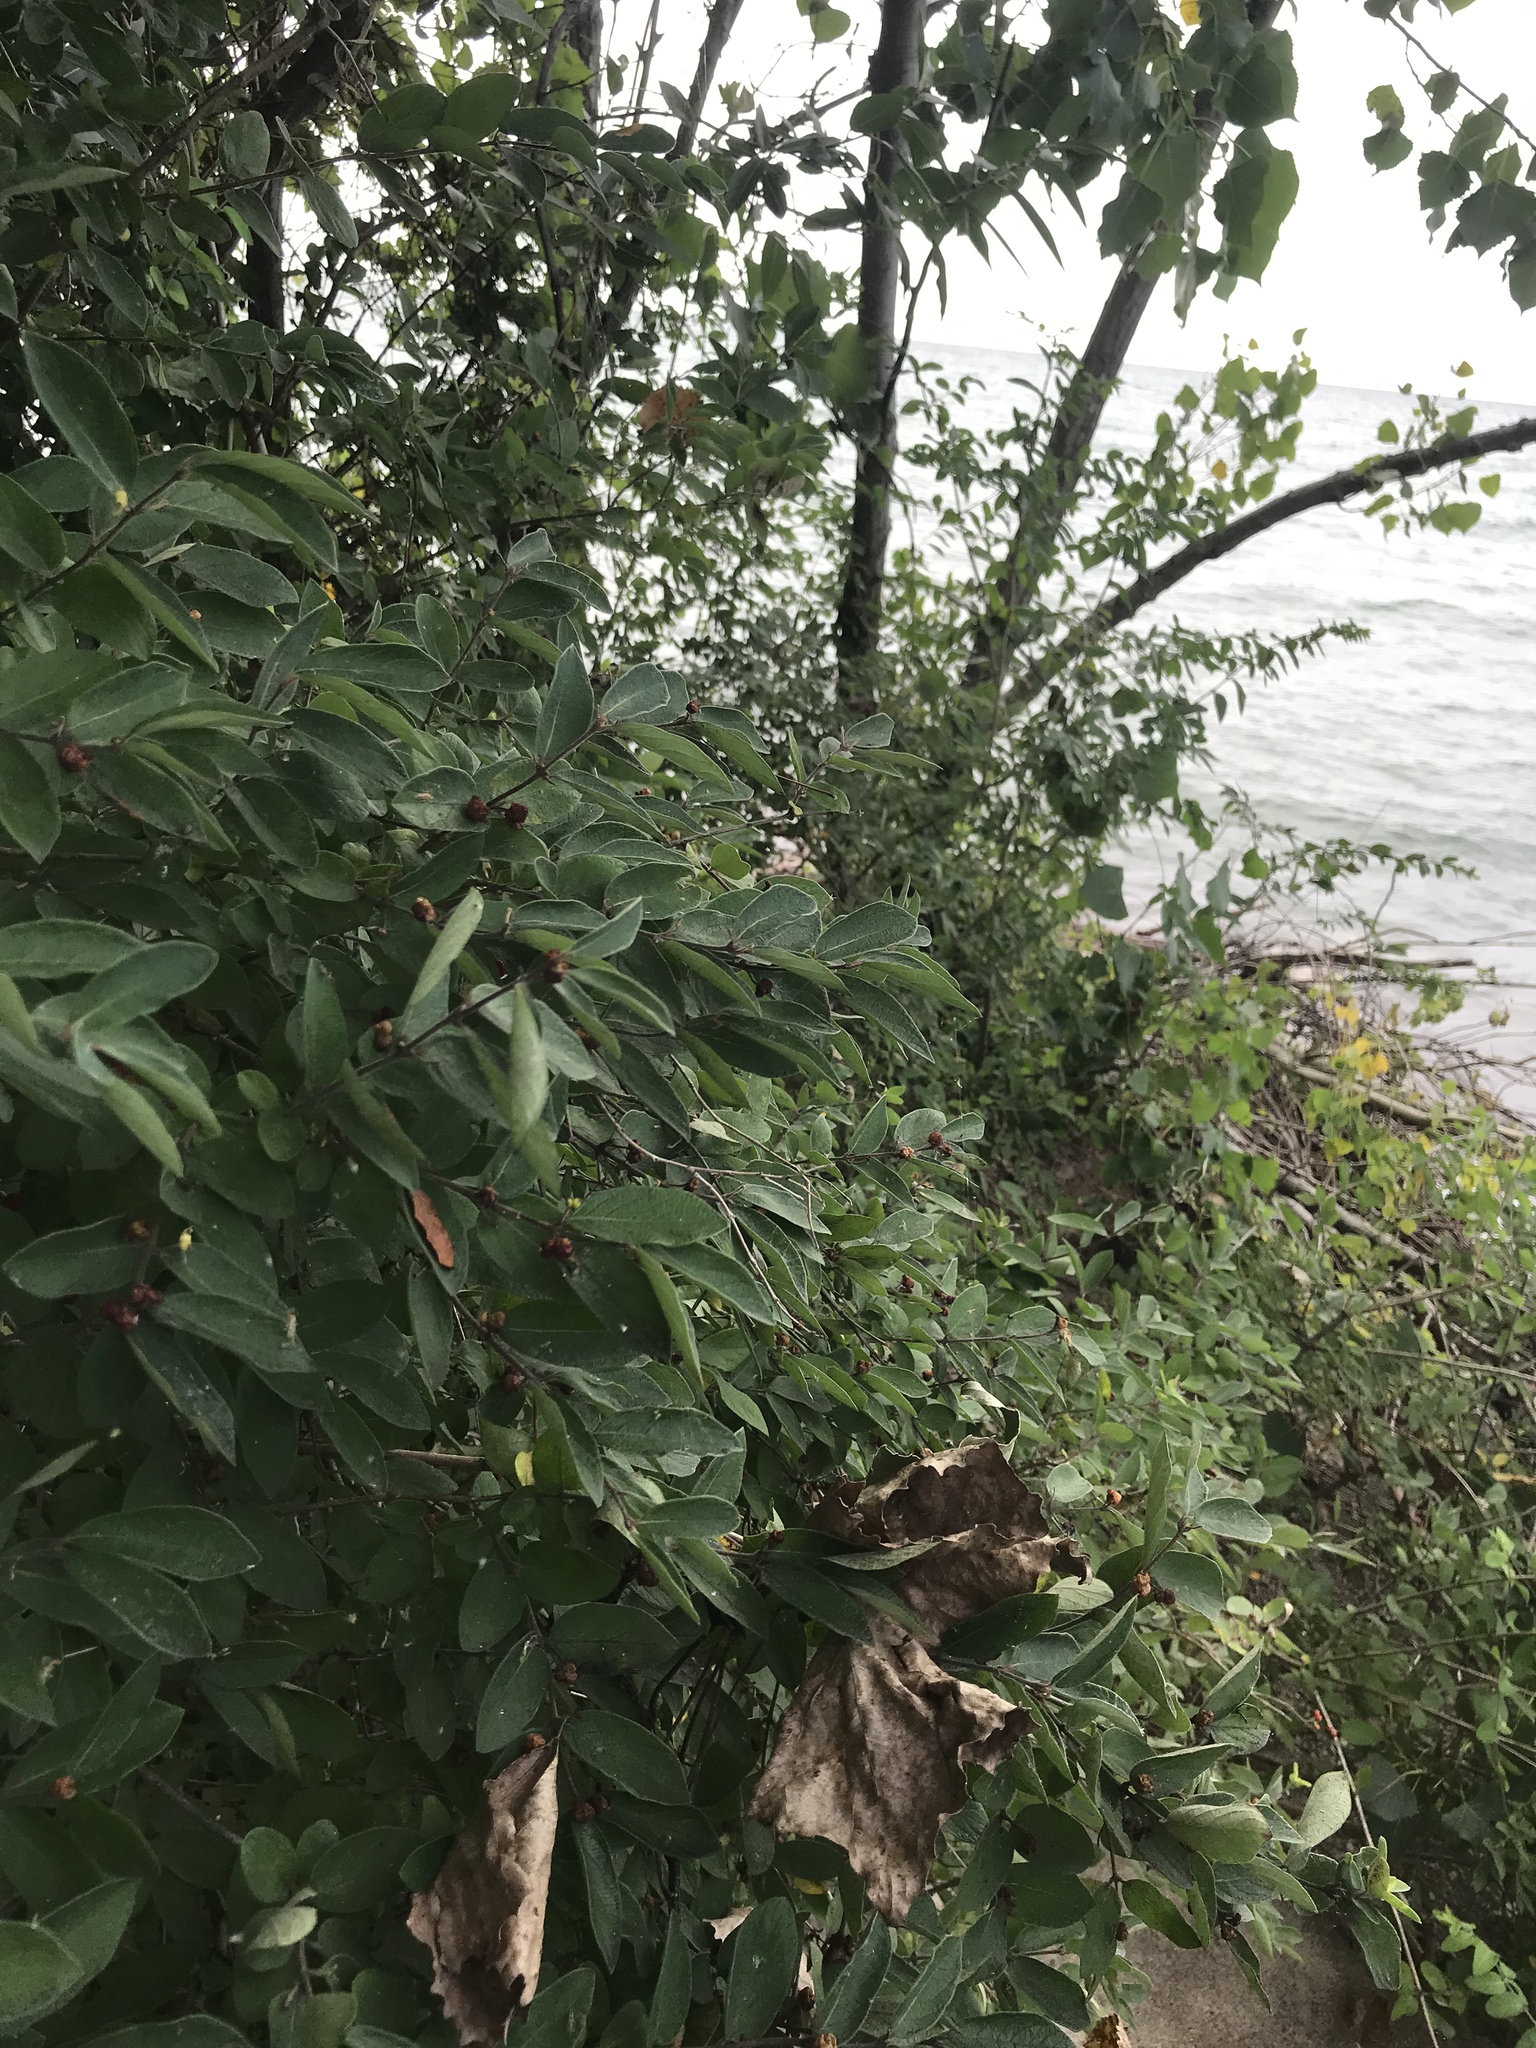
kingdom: Plantae
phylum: Tracheophyta
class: Magnoliopsida
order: Dipsacales
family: Caprifoliaceae
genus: Lonicera
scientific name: Lonicera morrowii
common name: Morrow's honeysuckle
